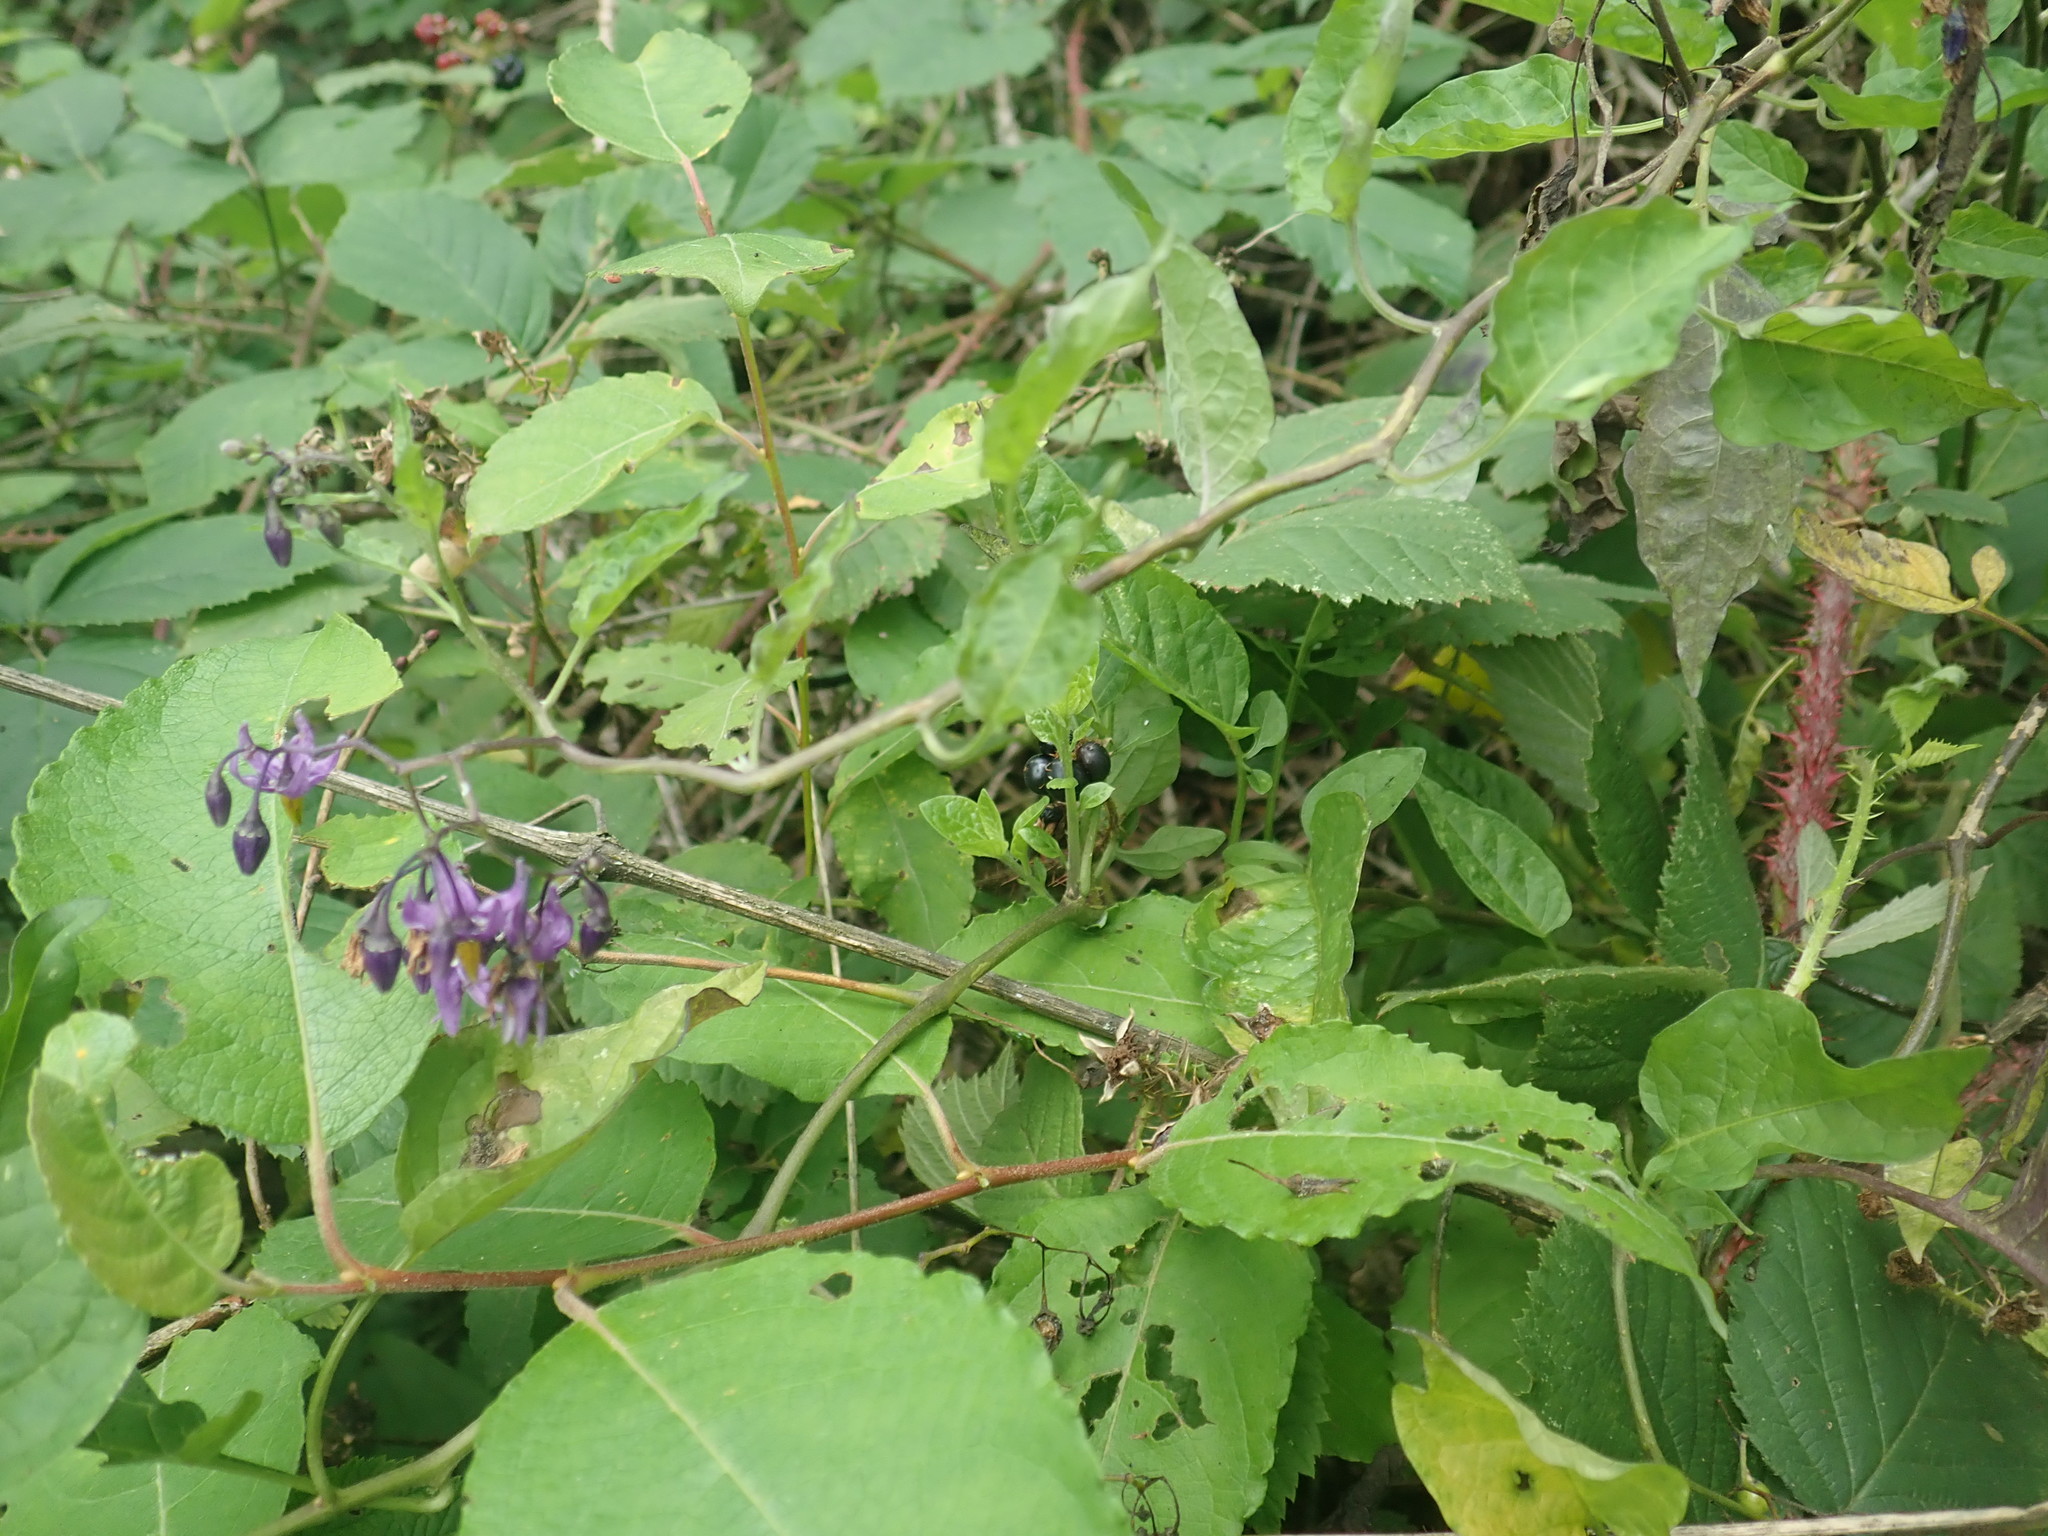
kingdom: Plantae
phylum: Tracheophyta
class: Magnoliopsida
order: Solanales
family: Solanaceae
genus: Solanum
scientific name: Solanum dulcamara
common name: Climbing nightshade
